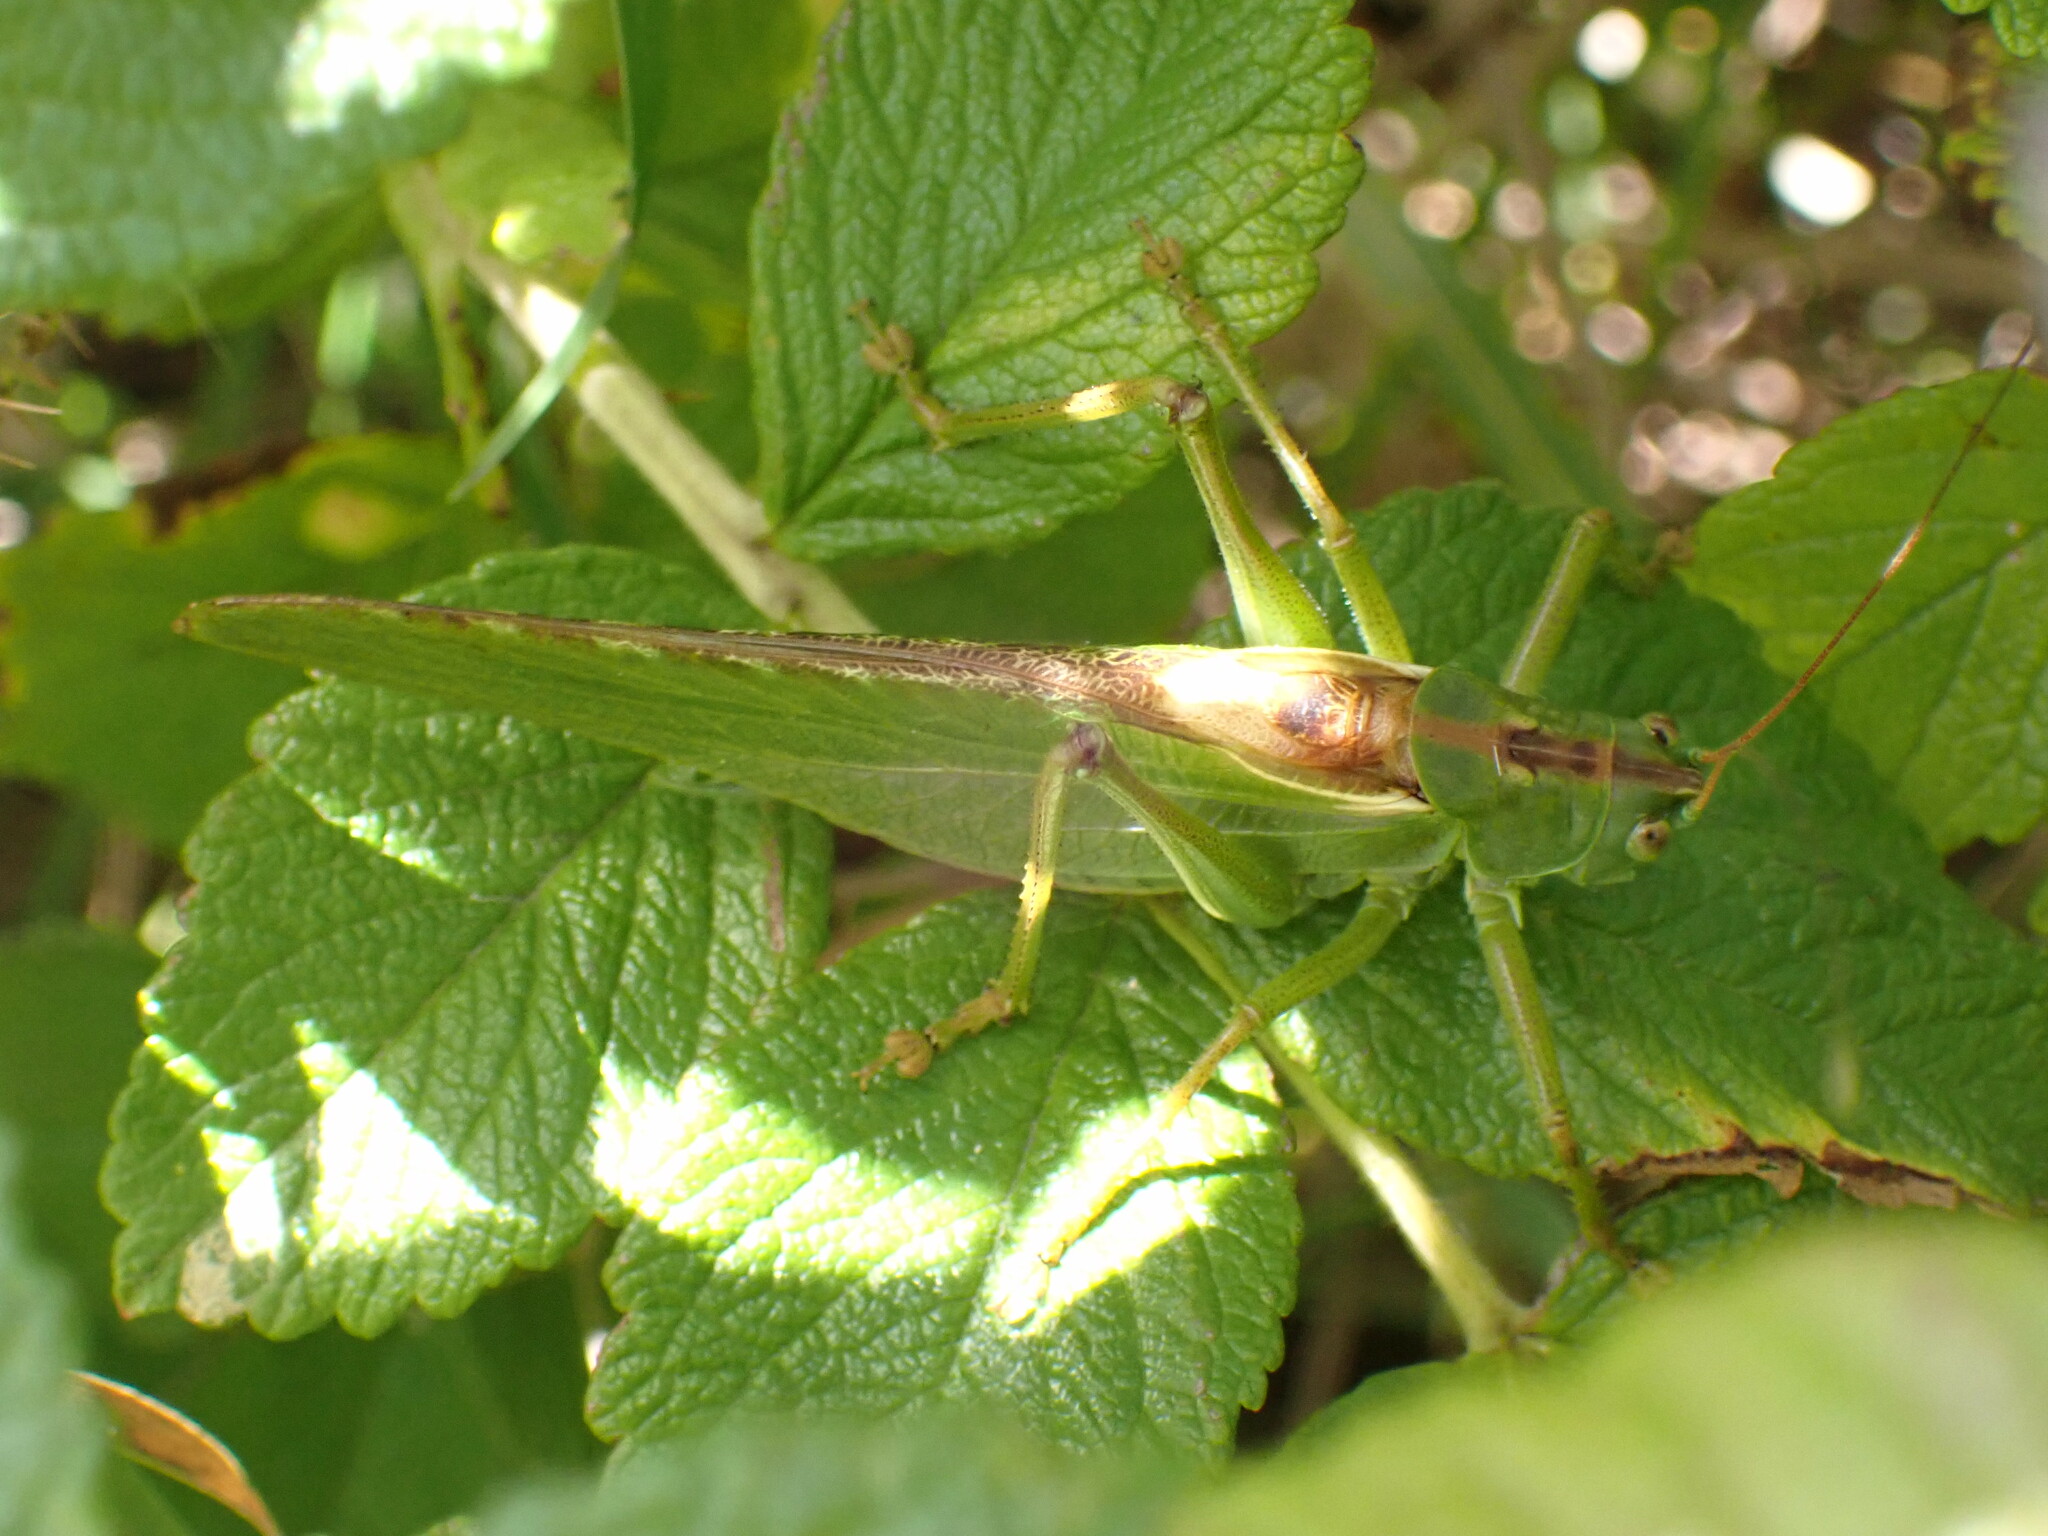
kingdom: Animalia
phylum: Arthropoda
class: Insecta
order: Orthoptera
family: Tettigoniidae
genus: Tettigonia
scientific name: Tettigonia viridissima
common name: Great green bush-cricket
